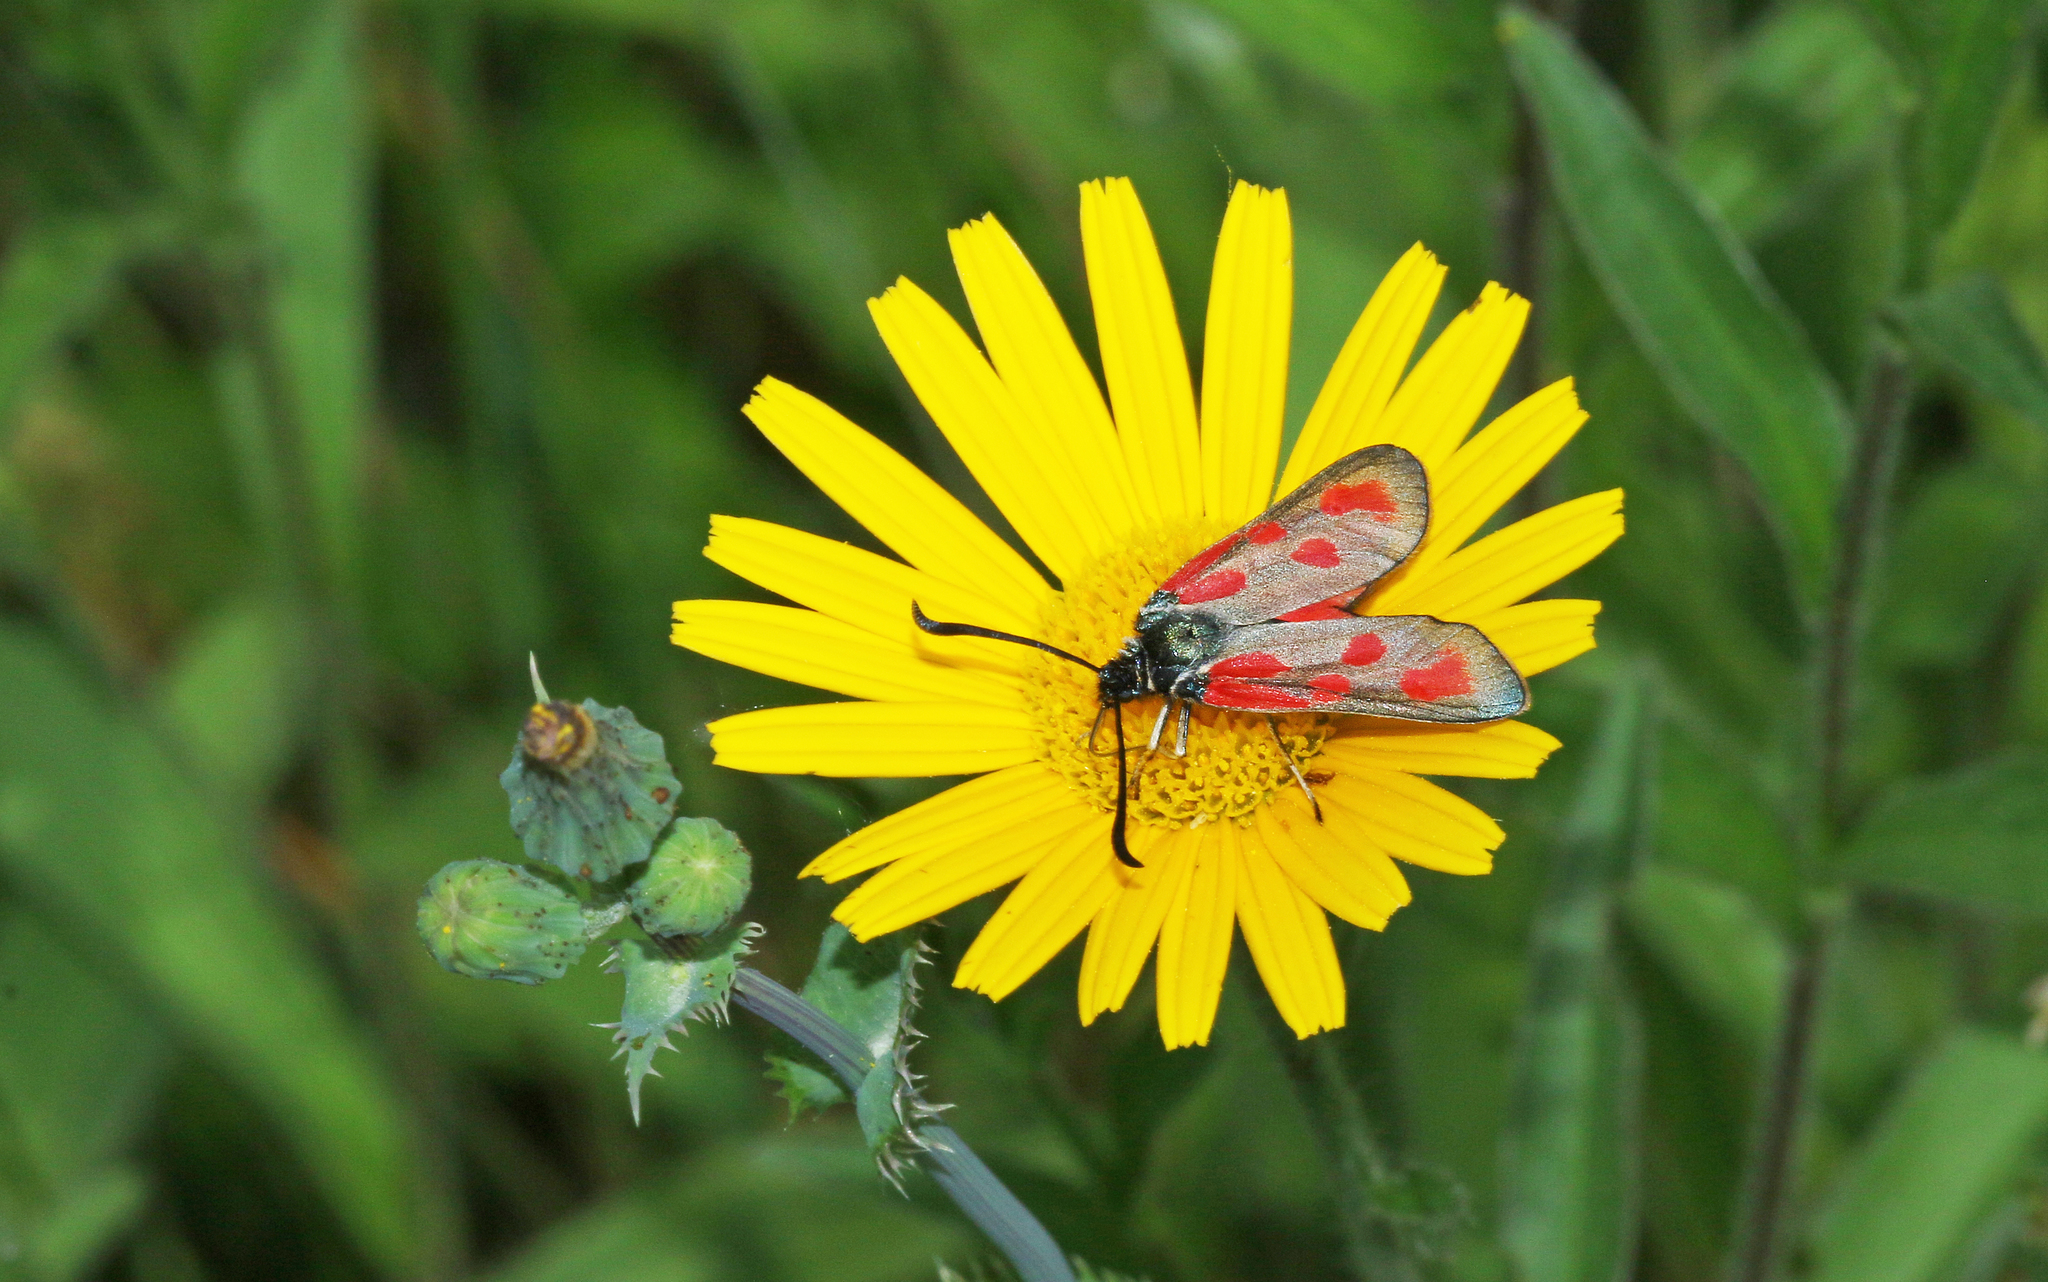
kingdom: Animalia
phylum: Arthropoda
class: Insecta
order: Lepidoptera
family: Zygaenidae
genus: Zygaena
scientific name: Zygaena loti
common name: Slender scotch burnet
